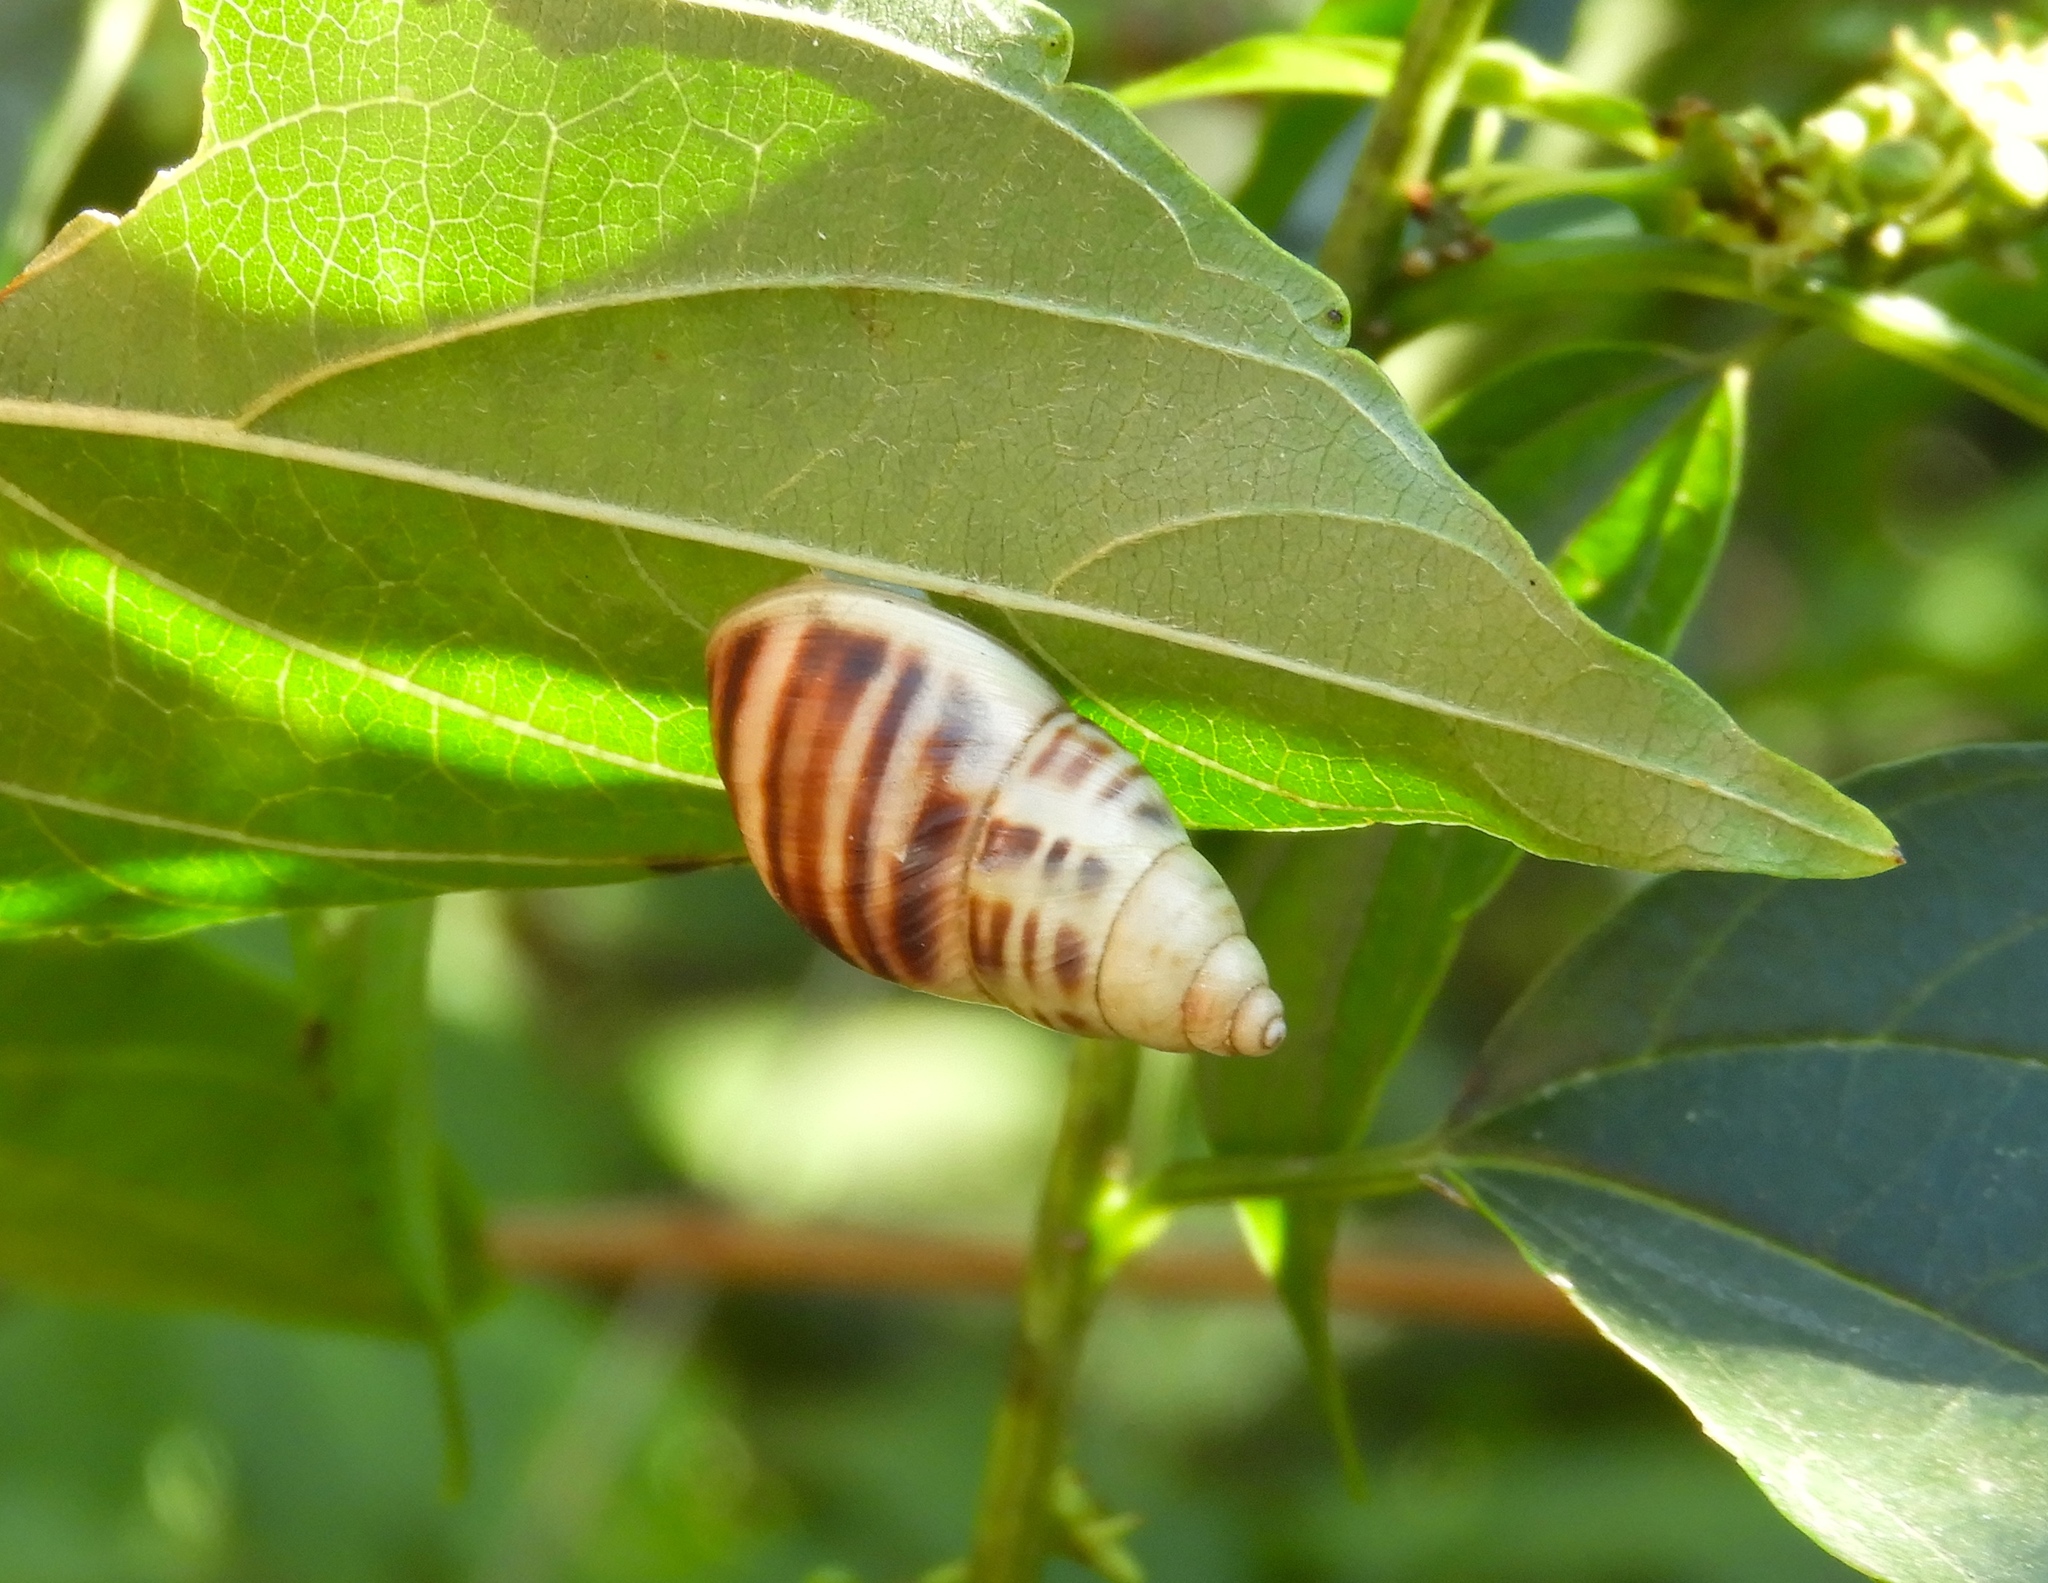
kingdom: Animalia
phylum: Mollusca
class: Gastropoda
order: Stylommatophora
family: Bulimulidae
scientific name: Bulimulidae
